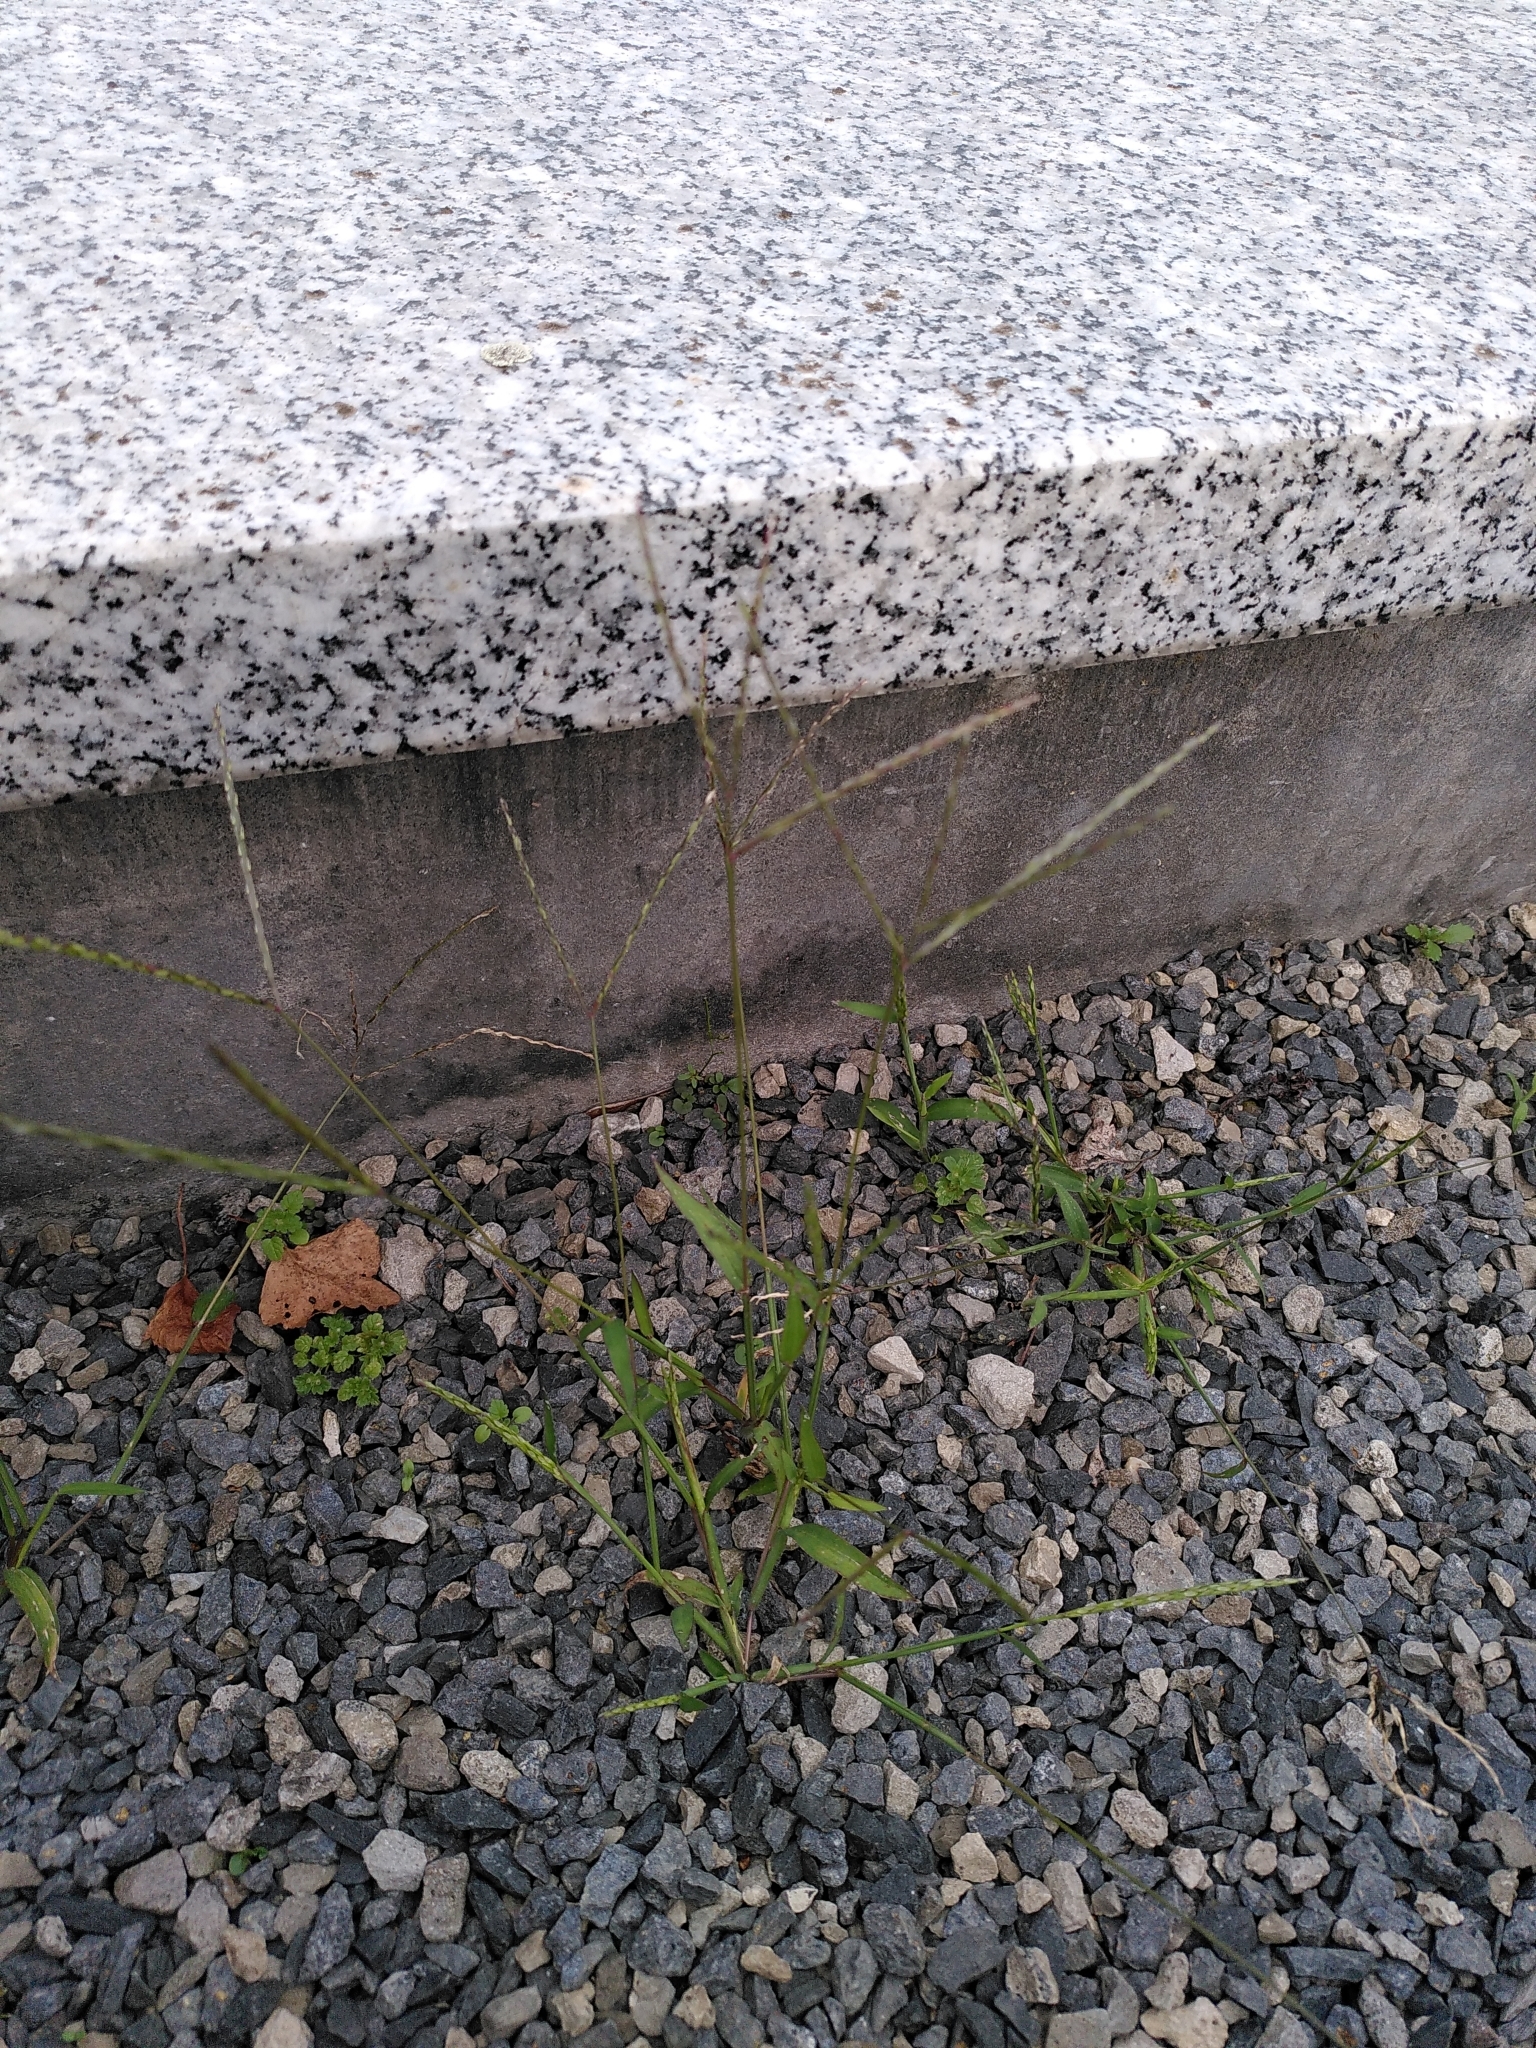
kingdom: Plantae
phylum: Tracheophyta
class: Liliopsida
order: Poales
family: Poaceae
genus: Digitaria
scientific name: Digitaria ischaemum
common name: Smooth crabgrass
